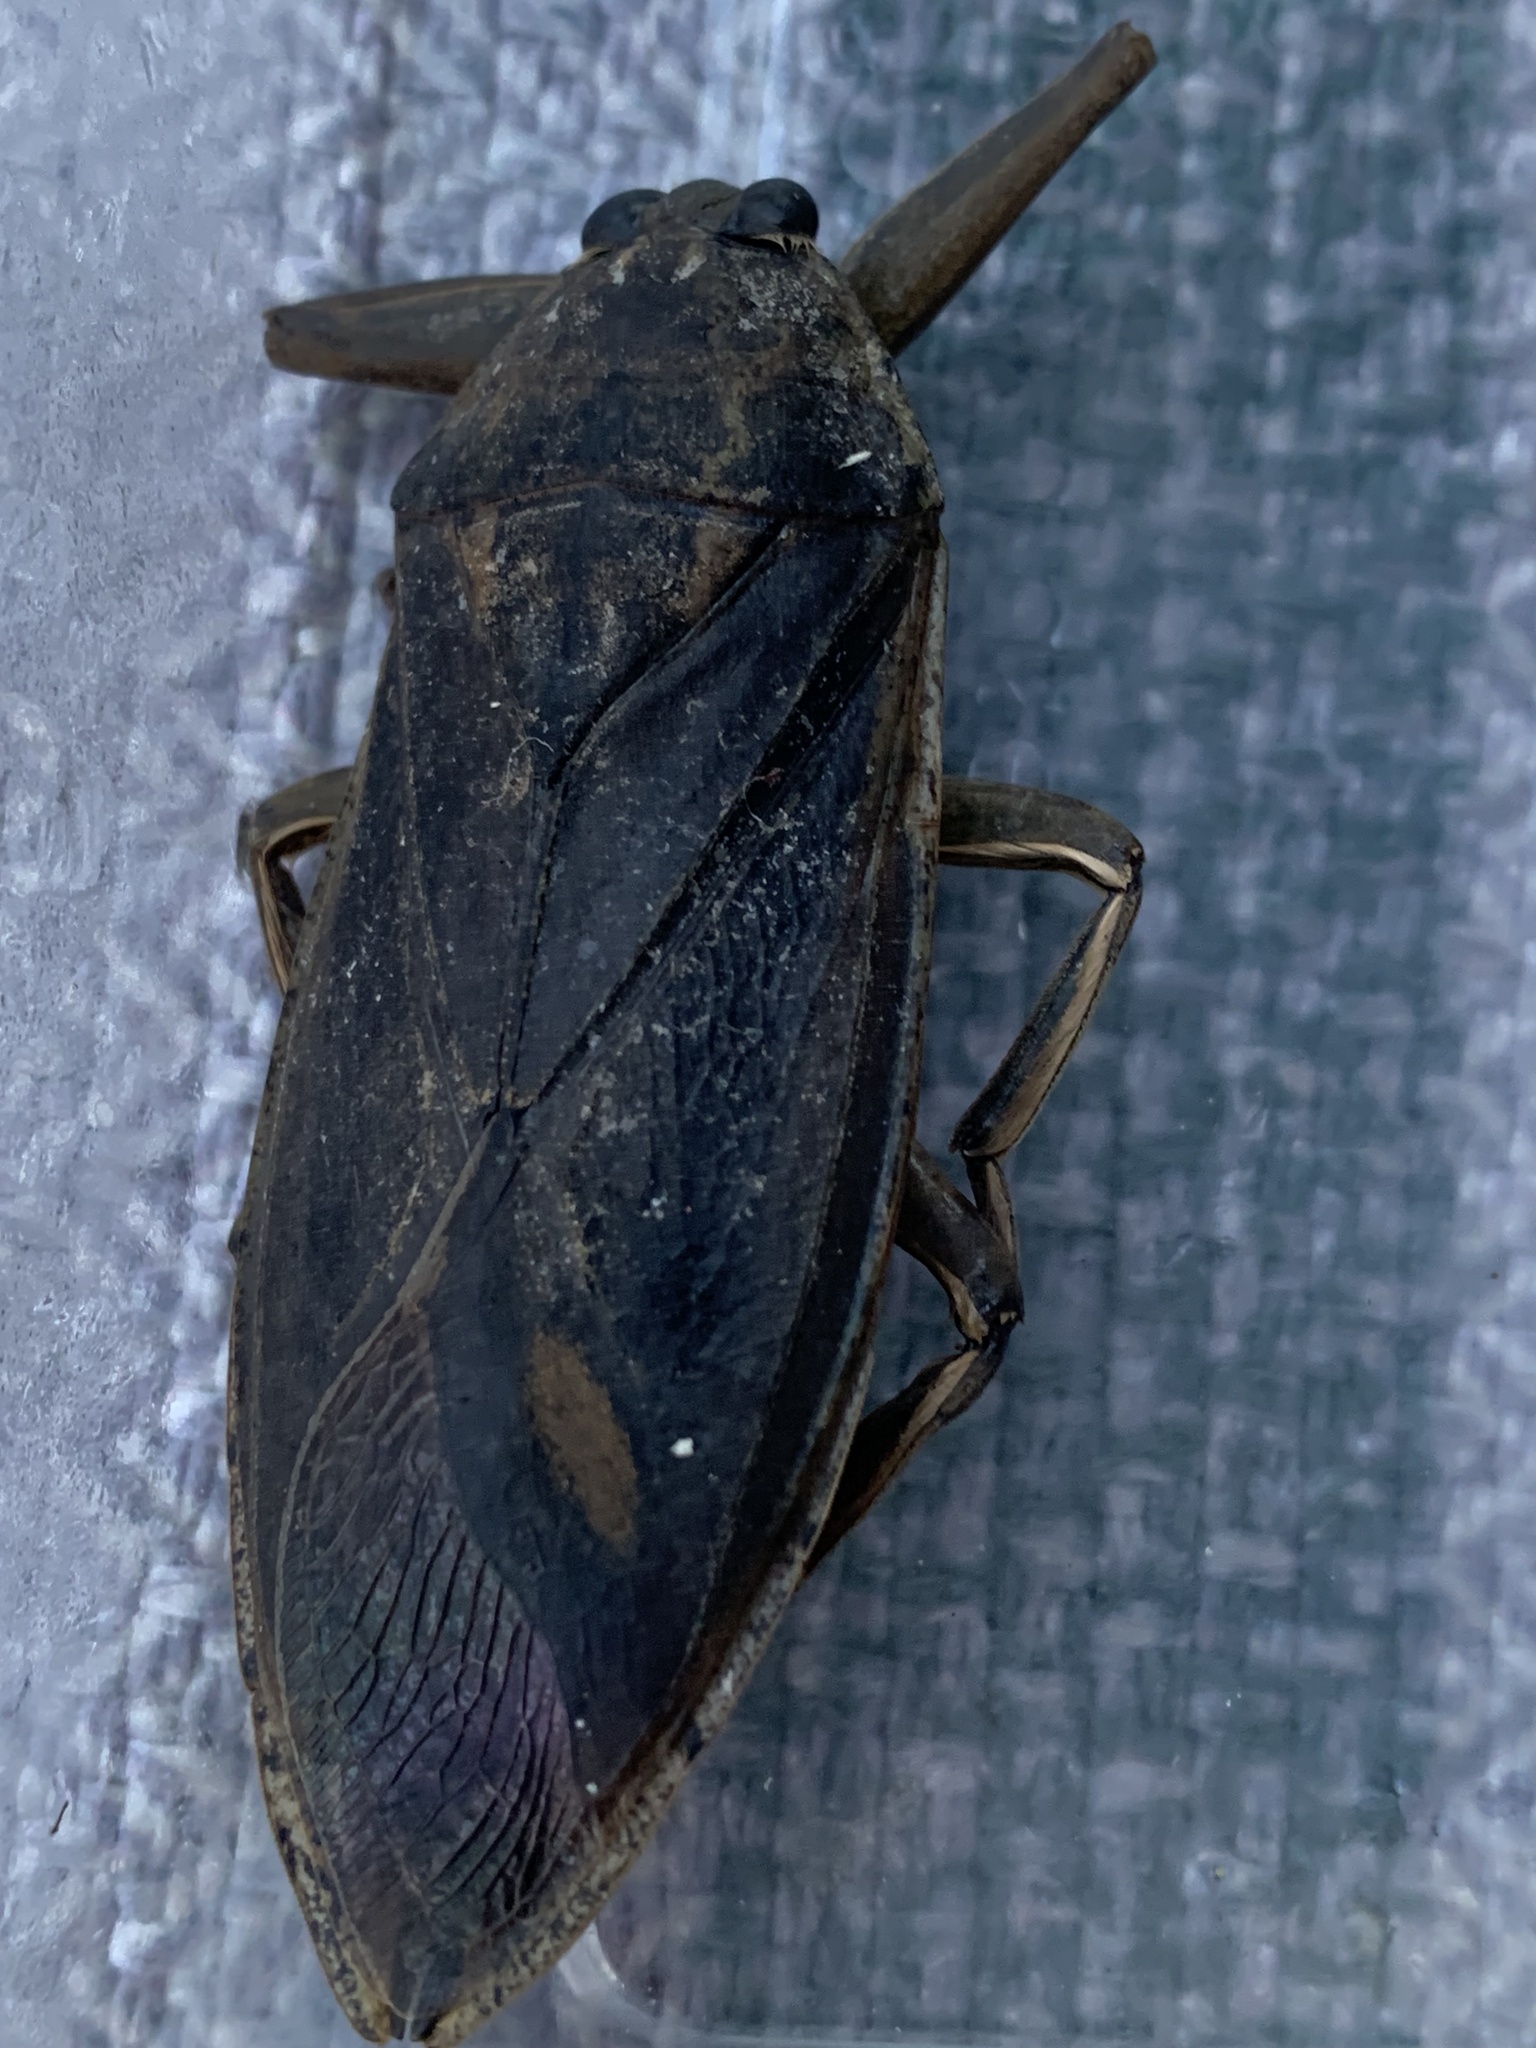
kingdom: Animalia
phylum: Arthropoda
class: Insecta
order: Hemiptera
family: Belostomatidae
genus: Lethocerus
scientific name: Lethocerus americanus
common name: Giant water bug
